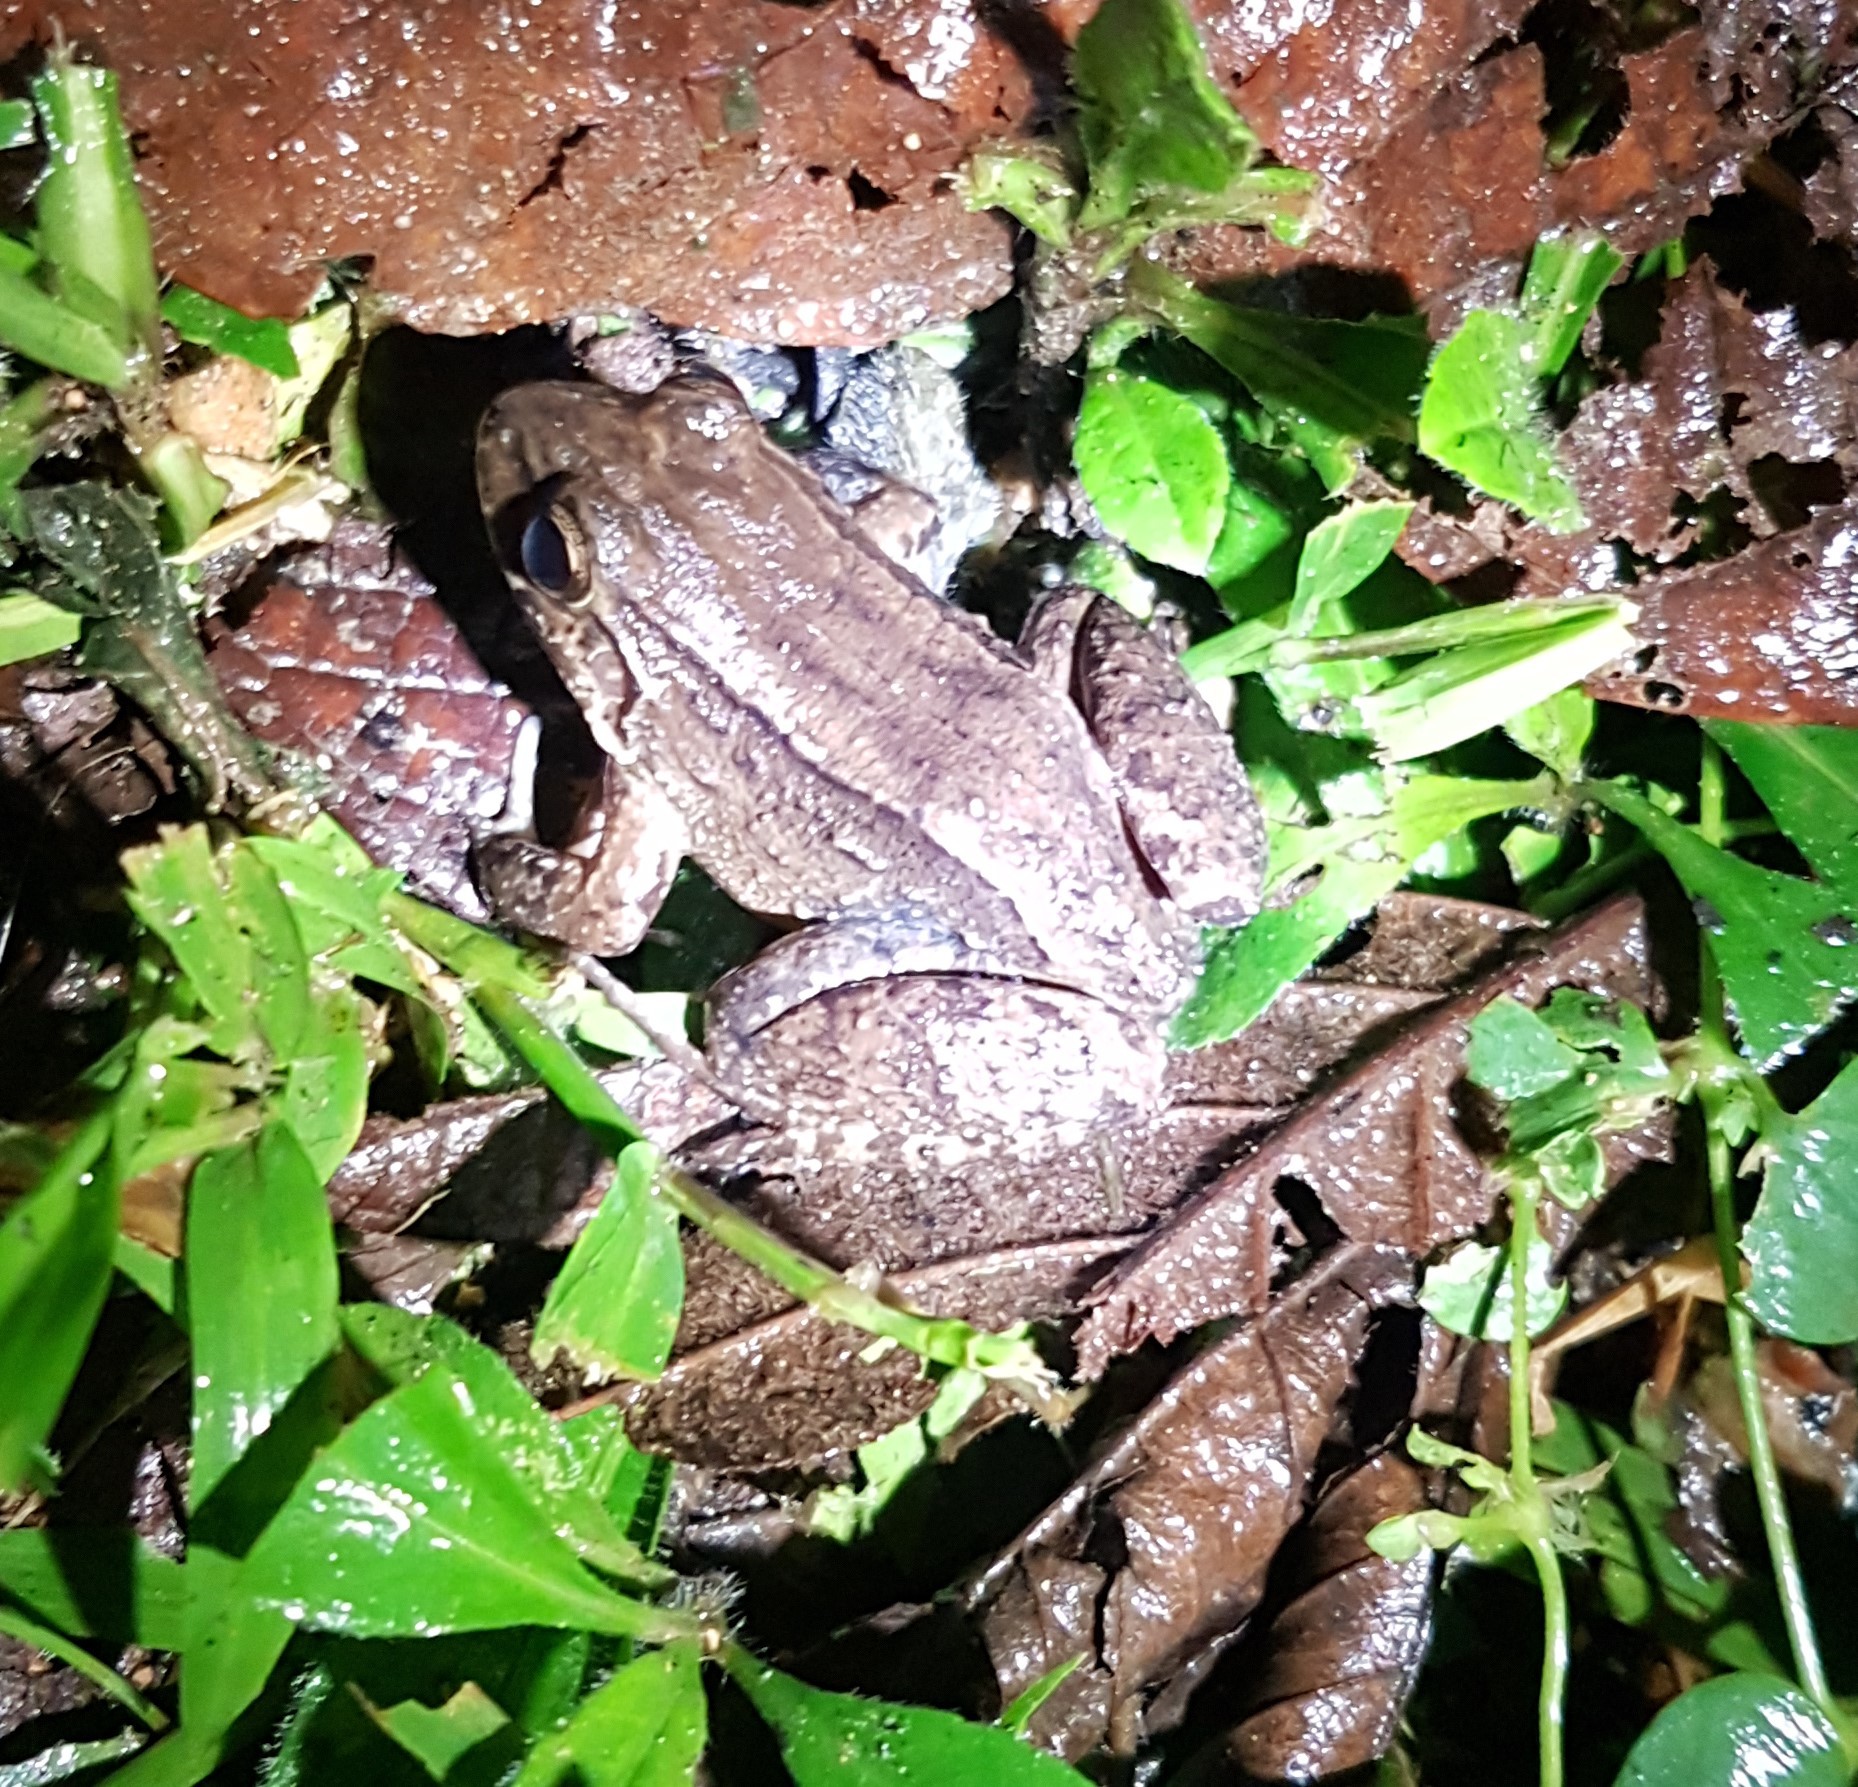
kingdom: Animalia
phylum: Chordata
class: Amphibia
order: Anura
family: Leptodactylidae
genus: Leptodactylus
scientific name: Leptodactylus ventrimaculatus
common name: Bulun white-lipped frog
